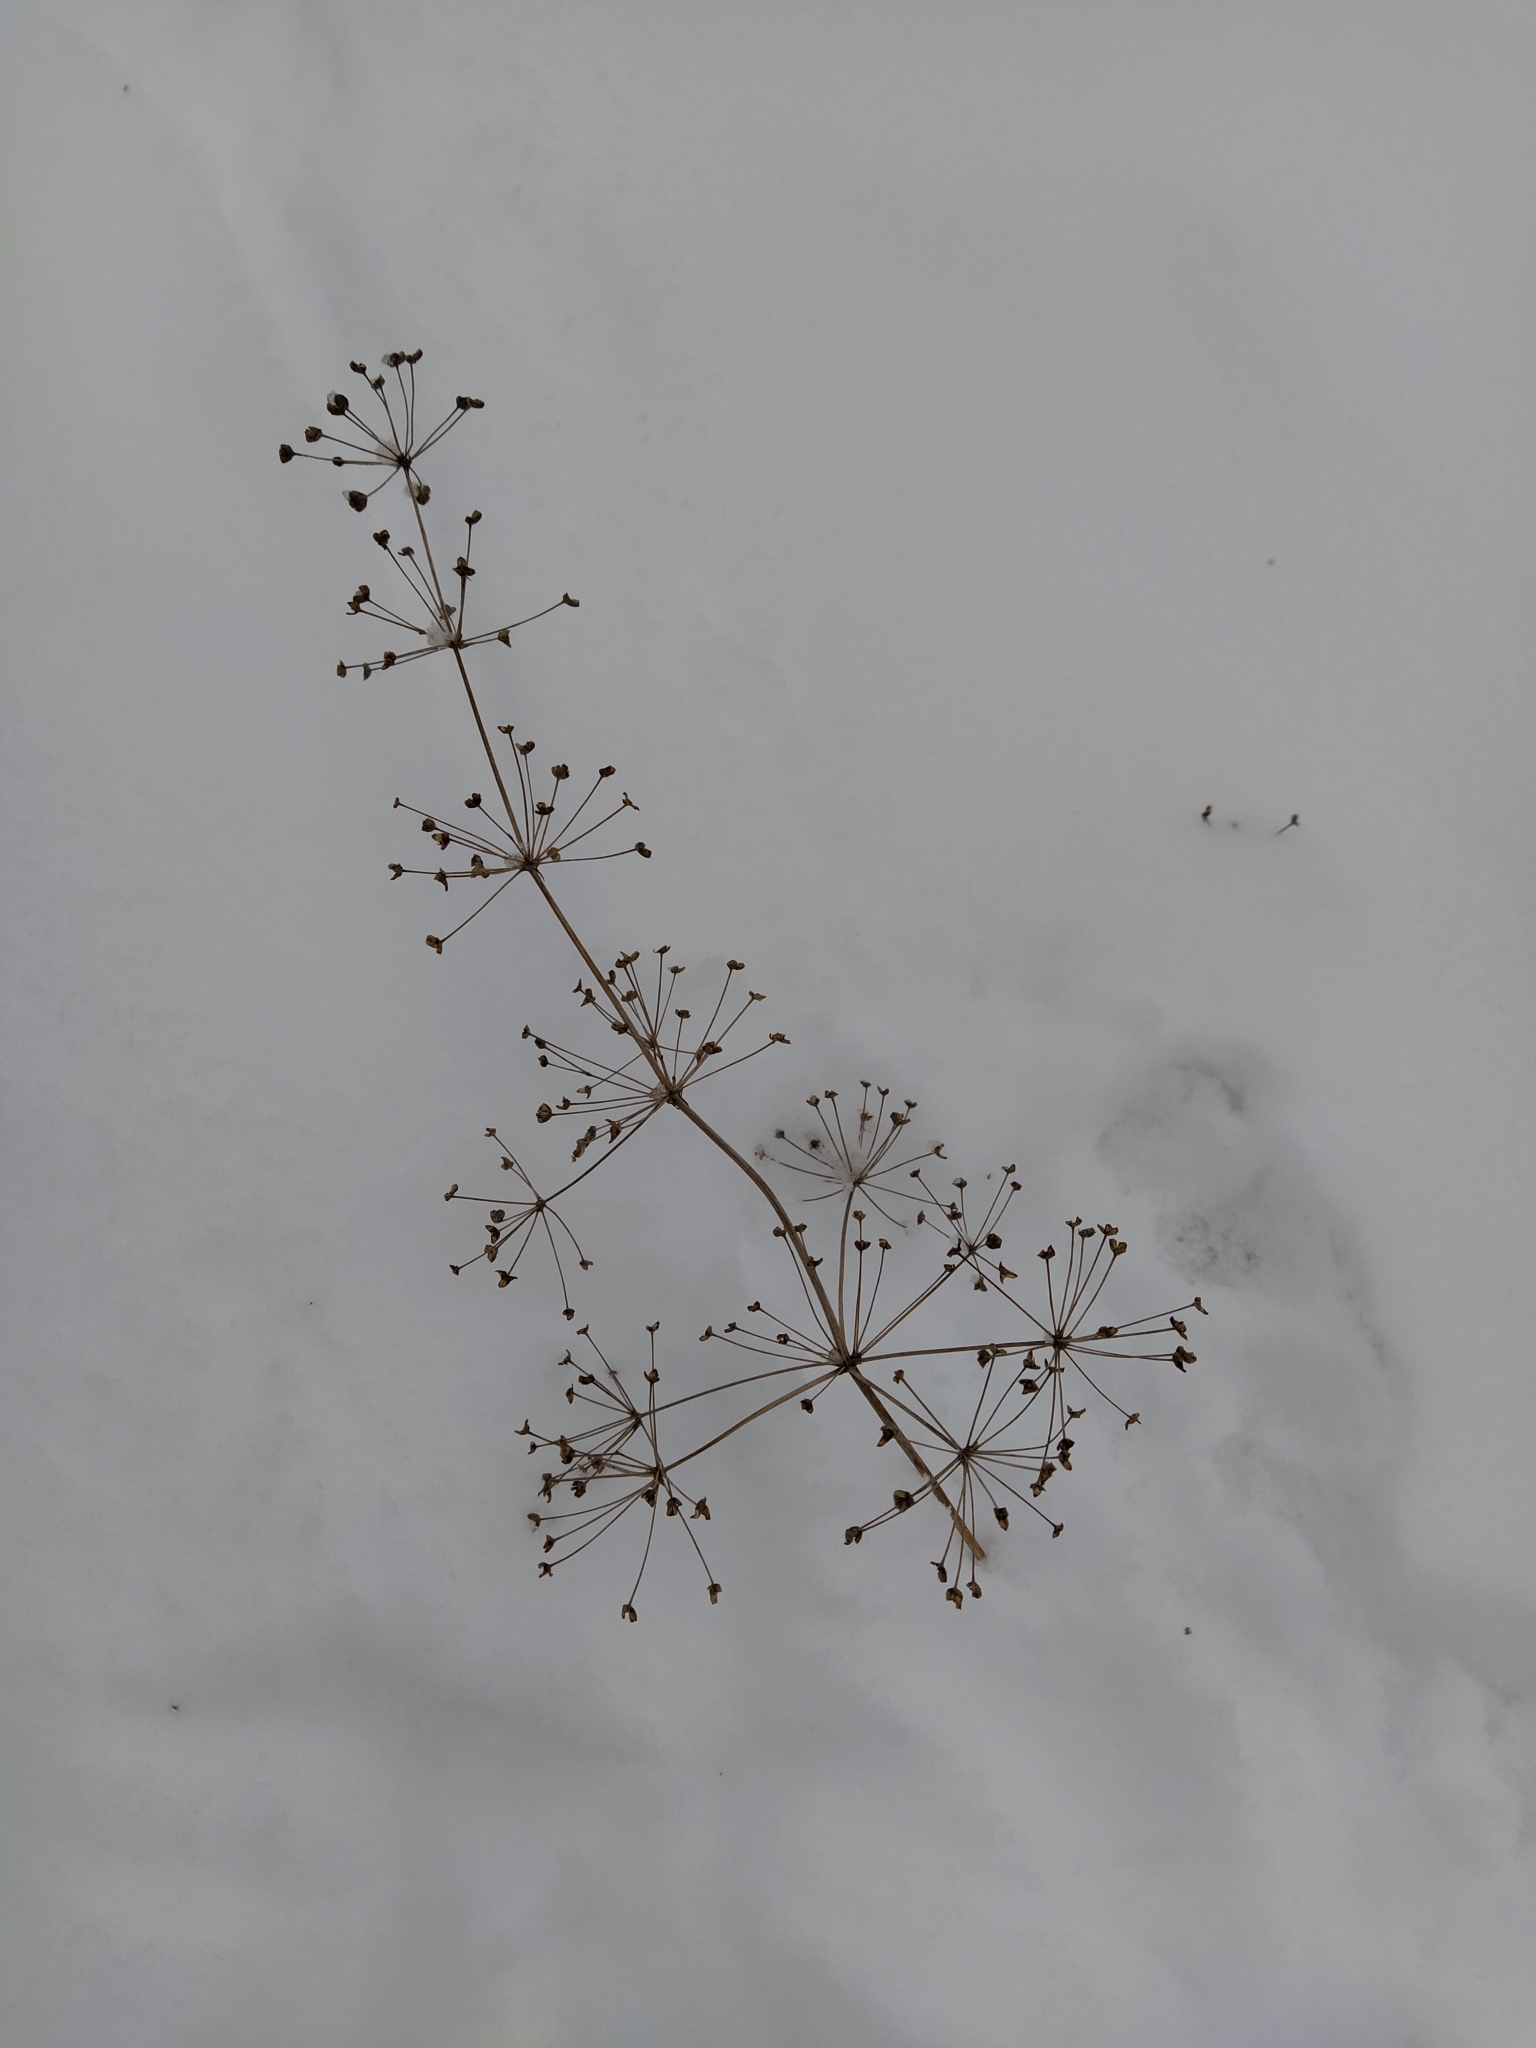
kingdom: Plantae
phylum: Tracheophyta
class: Liliopsida
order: Alismatales
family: Alismataceae
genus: Alisma
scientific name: Alisma plantago-aquatica
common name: Water-plantain
